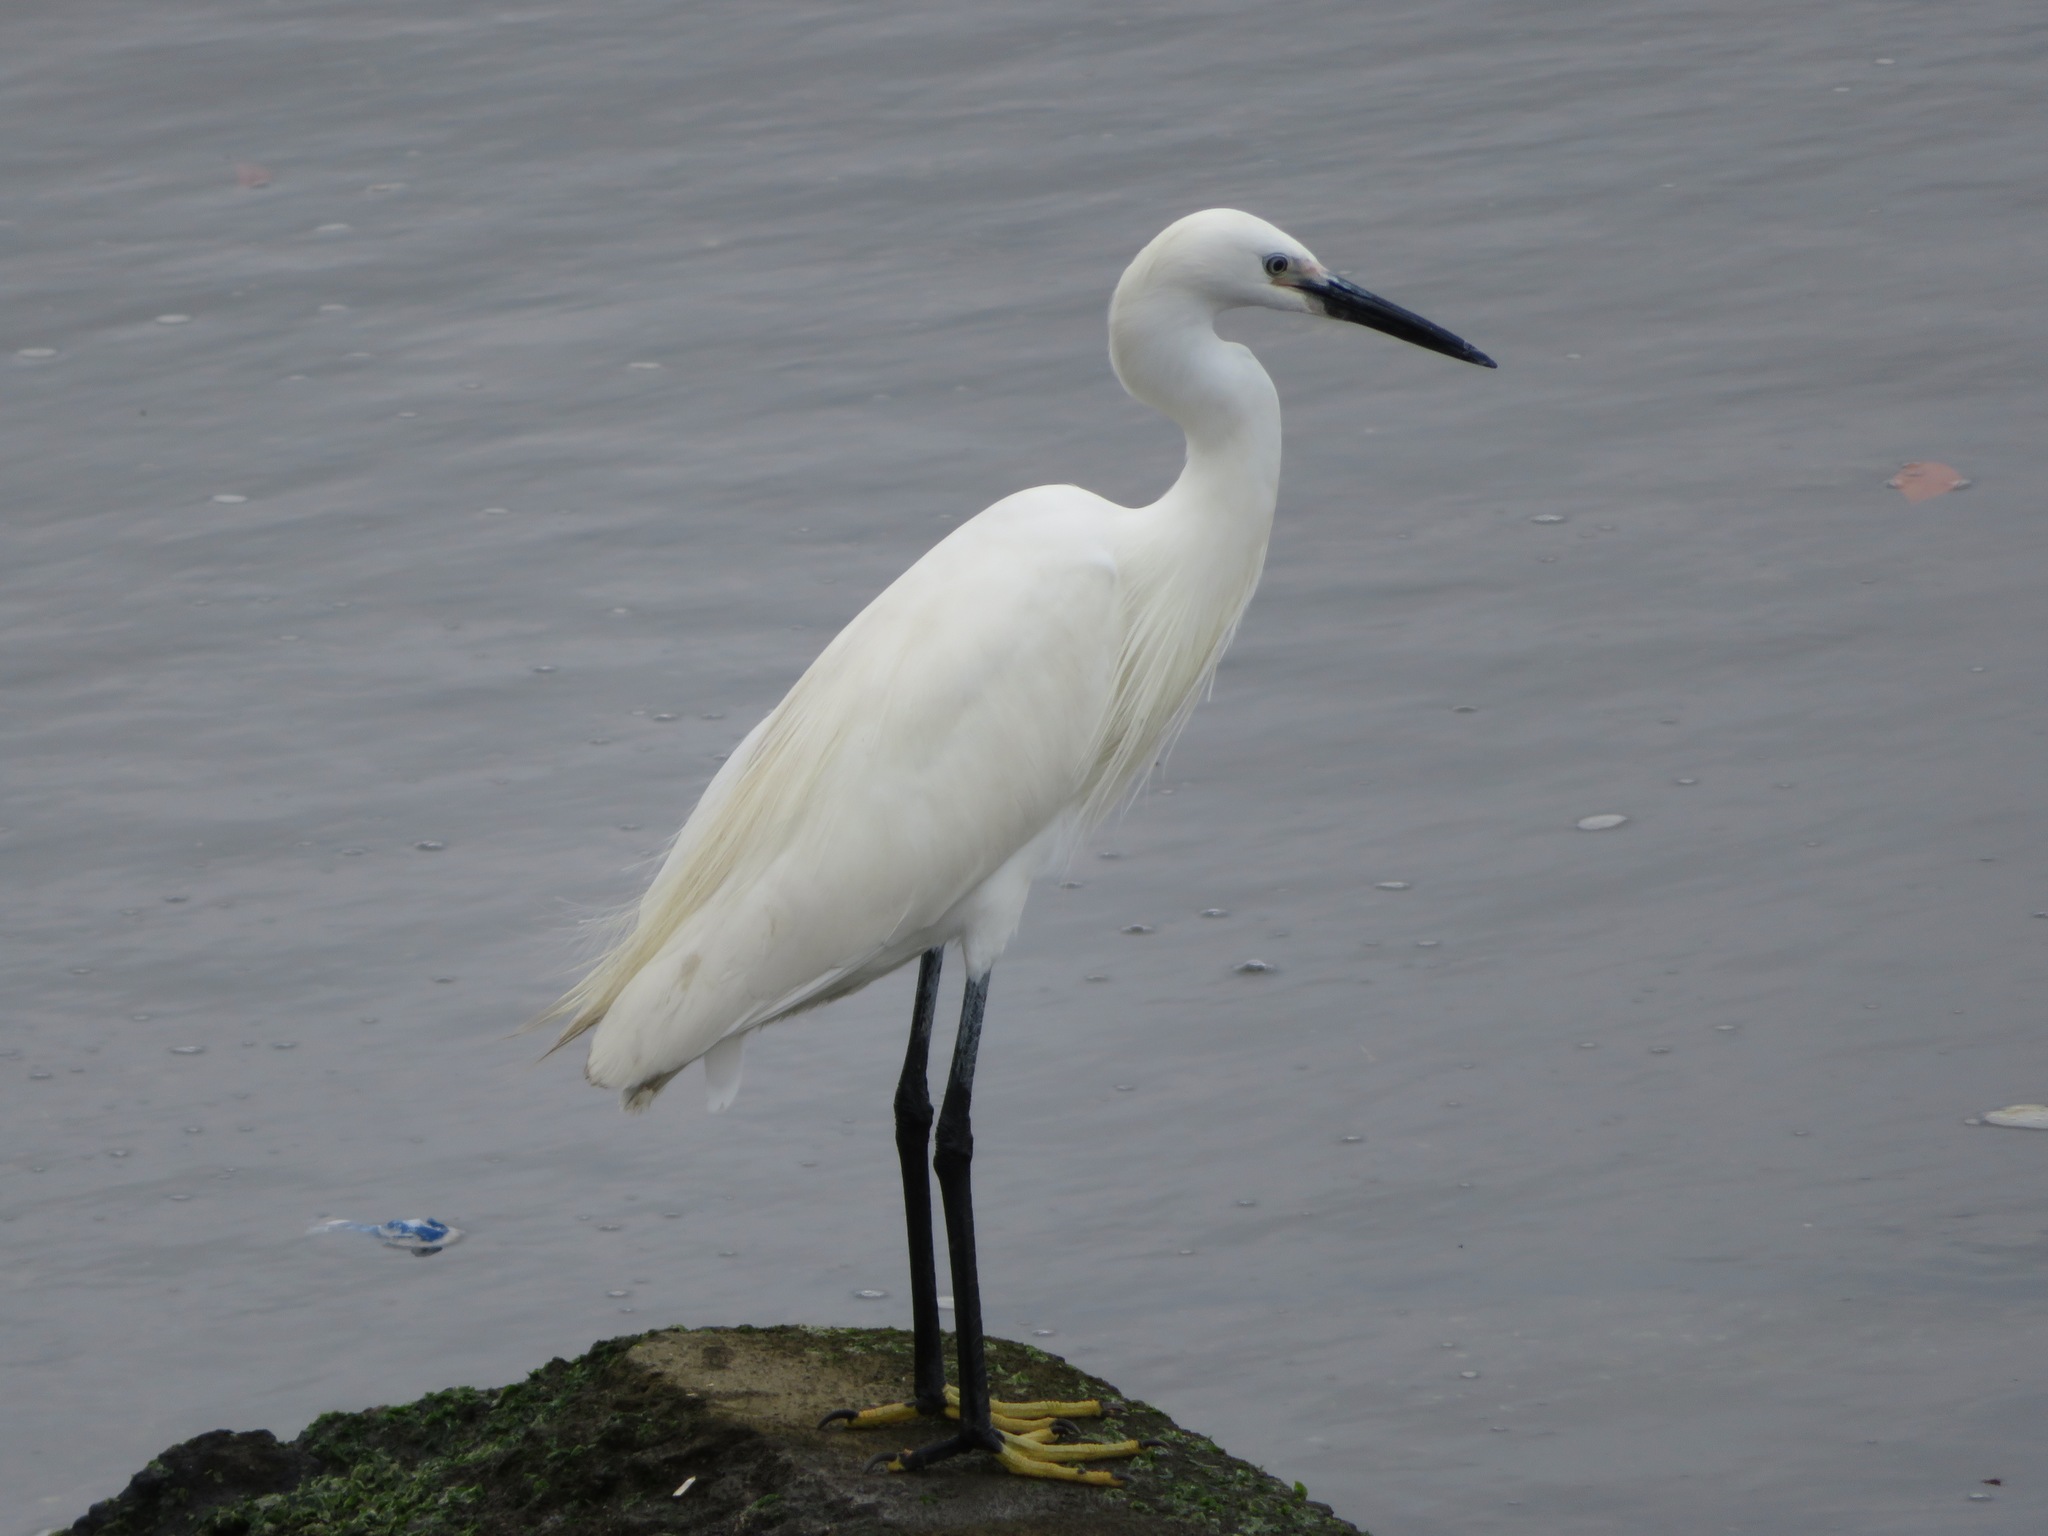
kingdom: Animalia
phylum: Chordata
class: Aves
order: Pelecaniformes
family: Ardeidae
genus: Egretta
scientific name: Egretta garzetta
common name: Little egret
